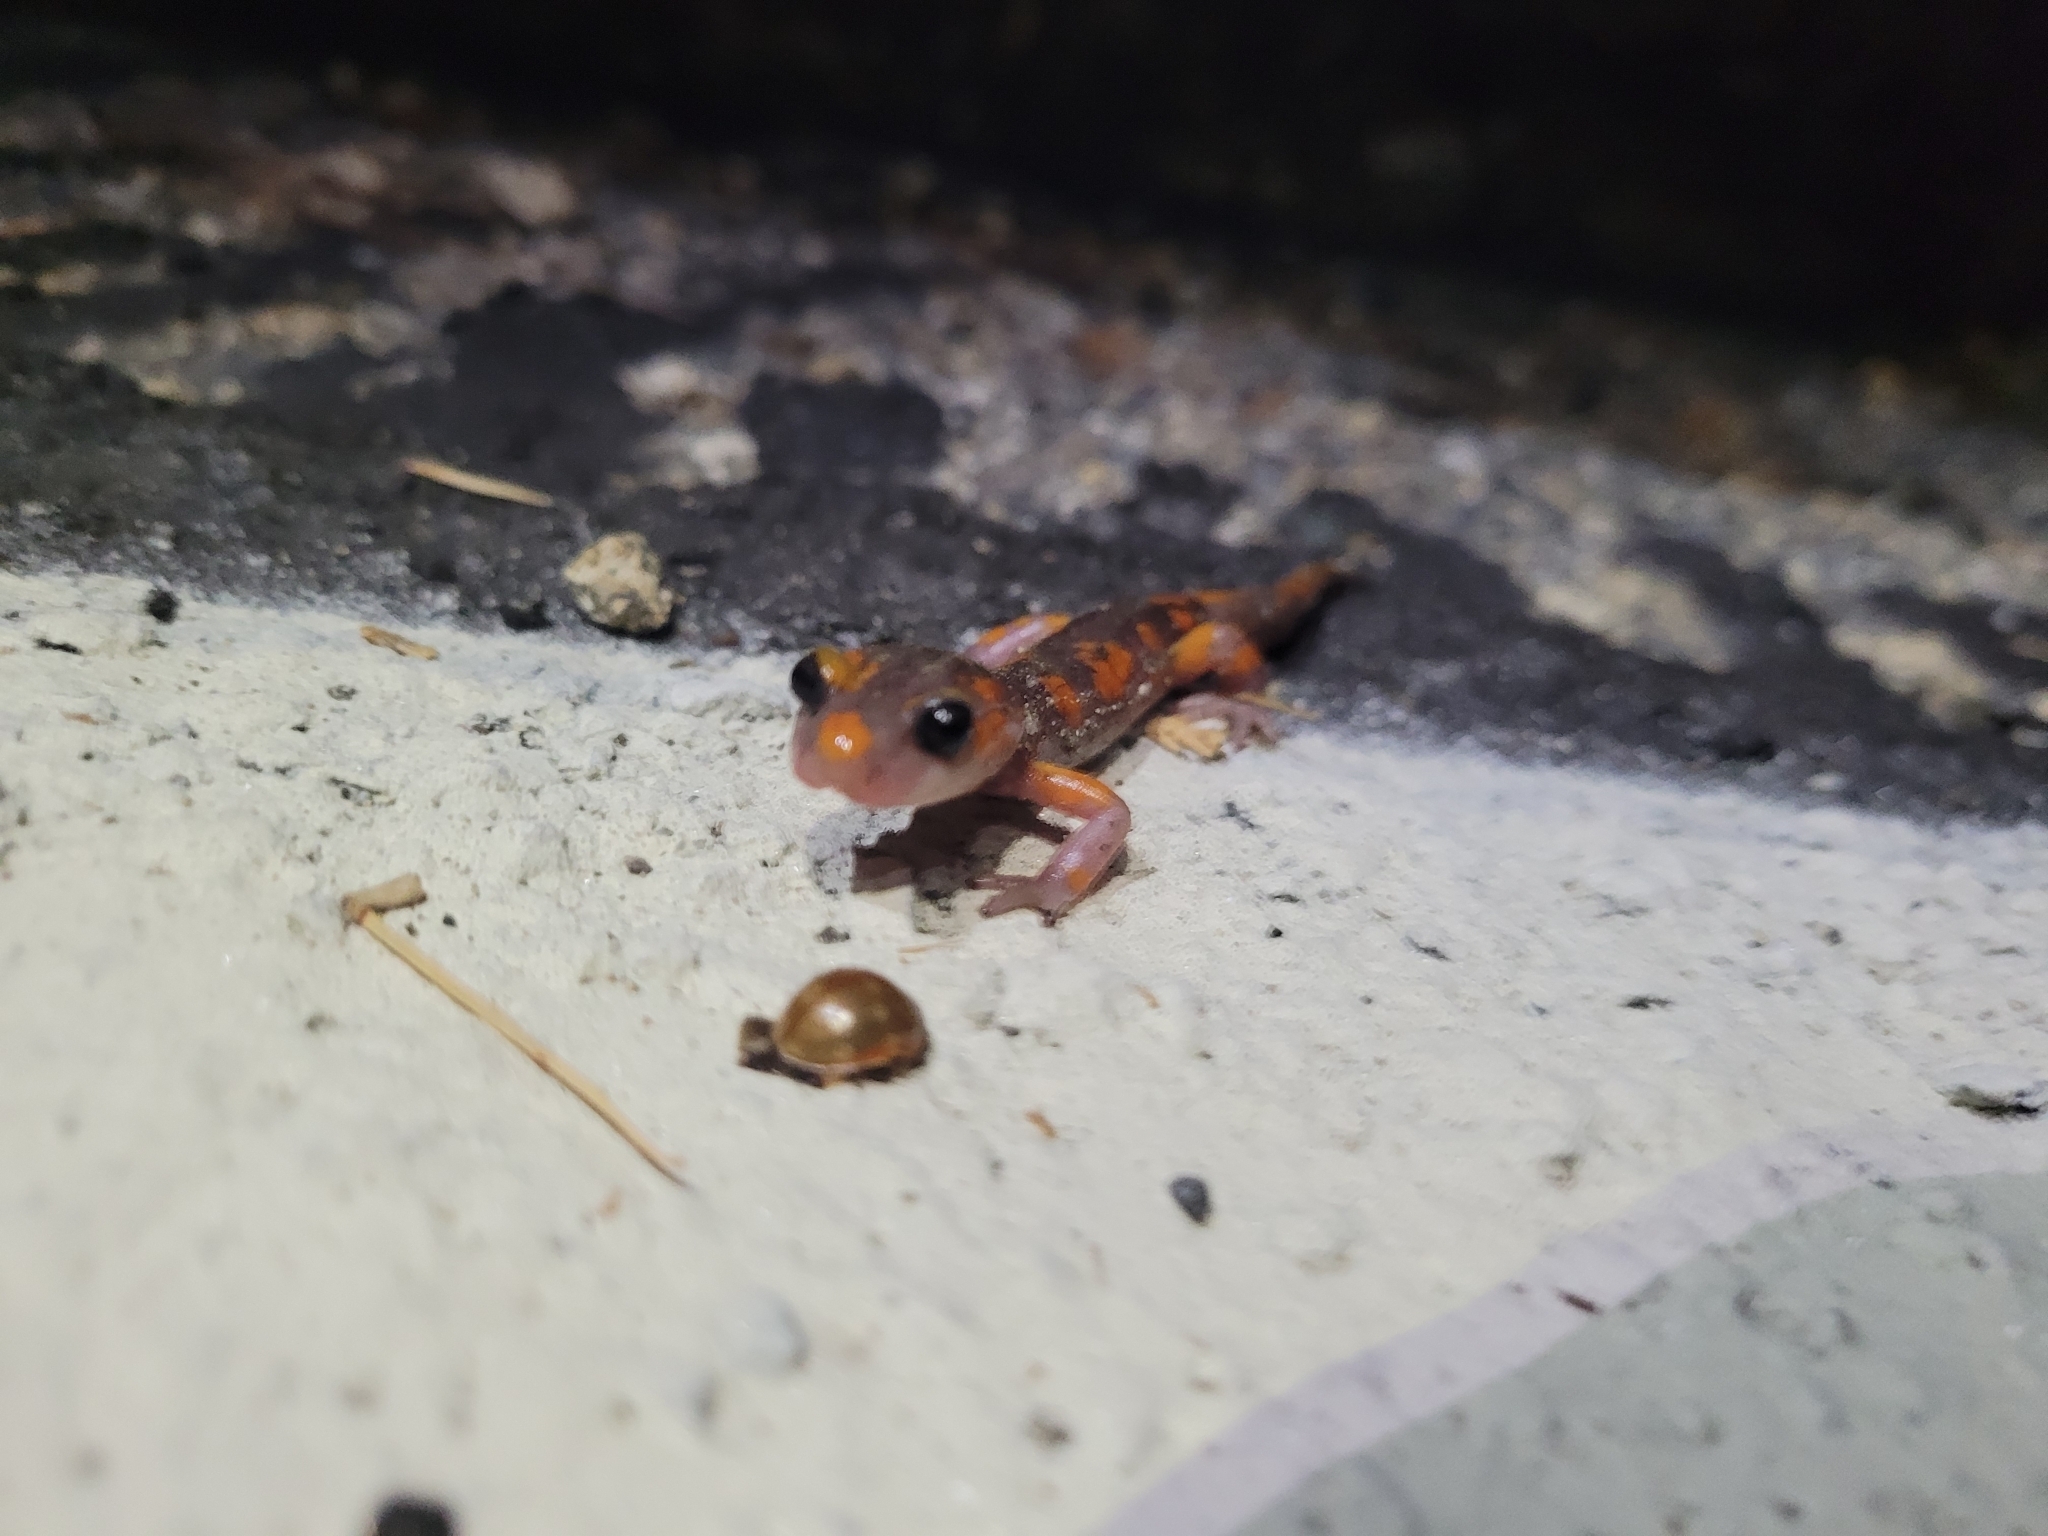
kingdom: Animalia
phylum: Chordata
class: Amphibia
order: Caudata
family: Plethodontidae
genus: Ensatina
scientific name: Ensatina eschscholtzii
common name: Ensatina
